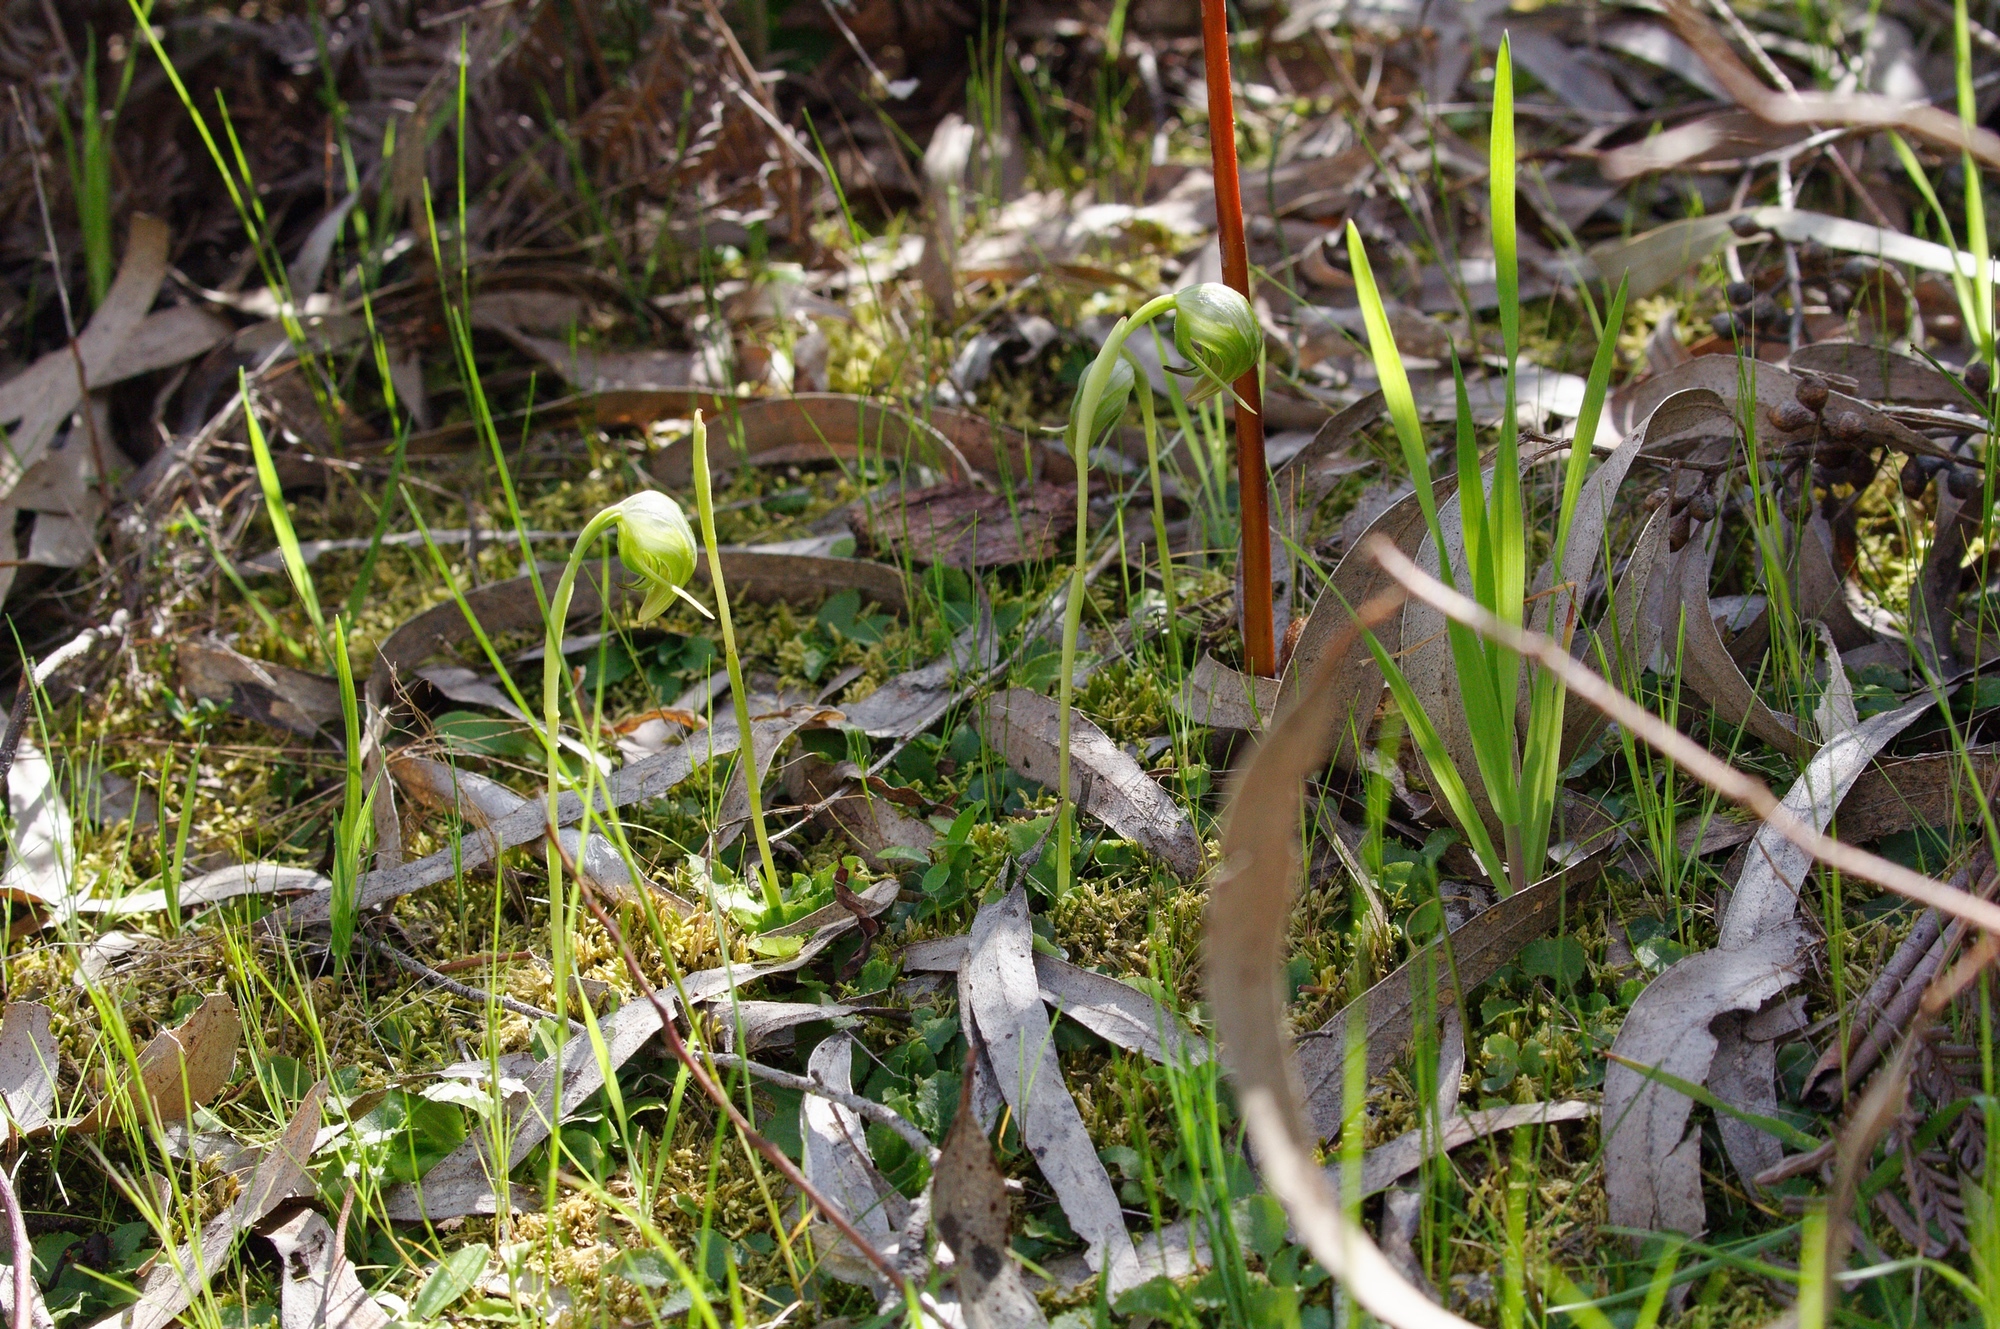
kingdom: Plantae
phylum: Tracheophyta
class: Liliopsida
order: Asparagales
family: Orchidaceae
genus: Pterostylis
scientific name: Pterostylis nutans
